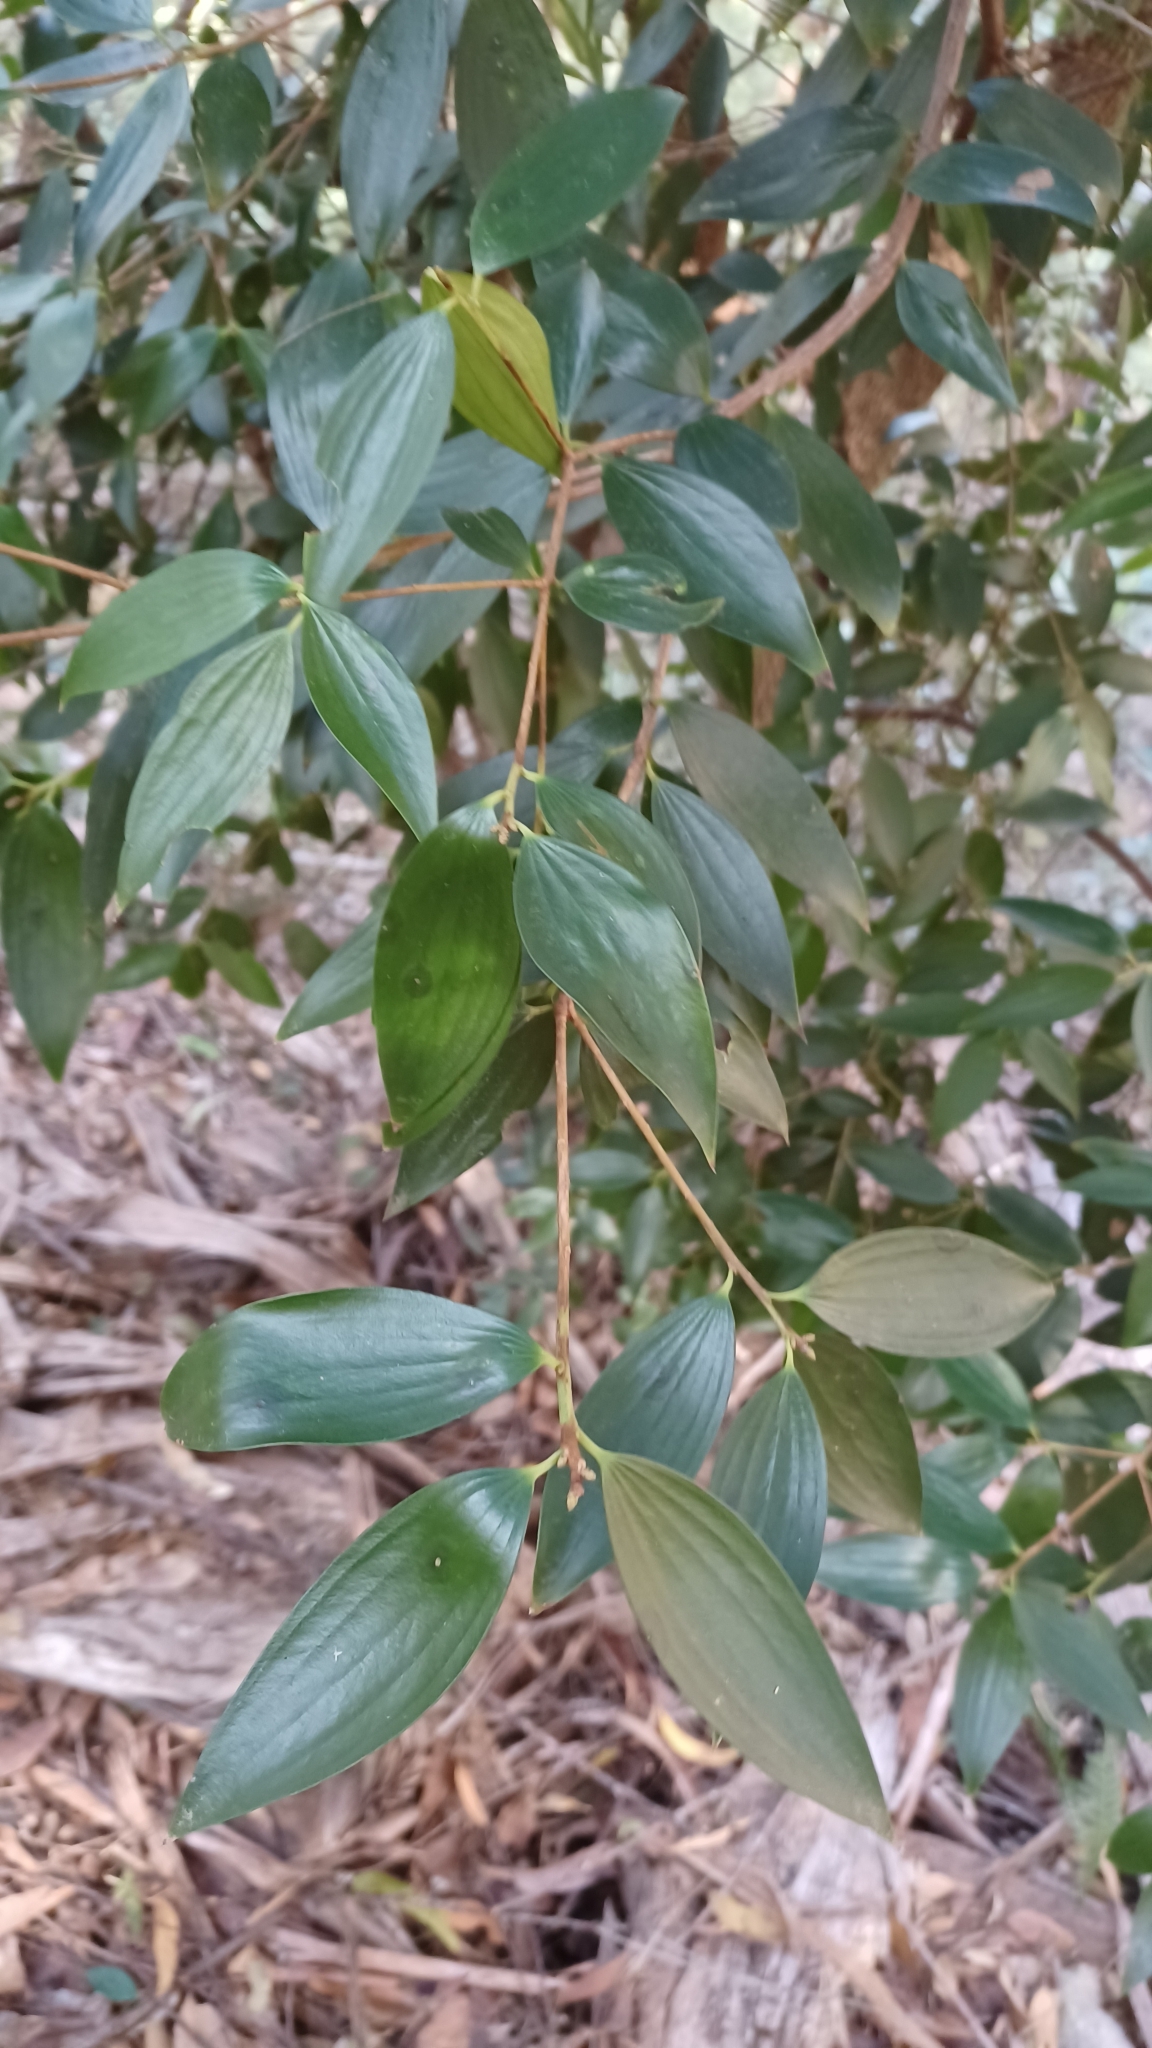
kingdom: Plantae
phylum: Tracheophyta
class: Magnoliopsida
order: Ericales
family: Ericaceae
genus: Trochocarpa
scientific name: Trochocarpa laurina
